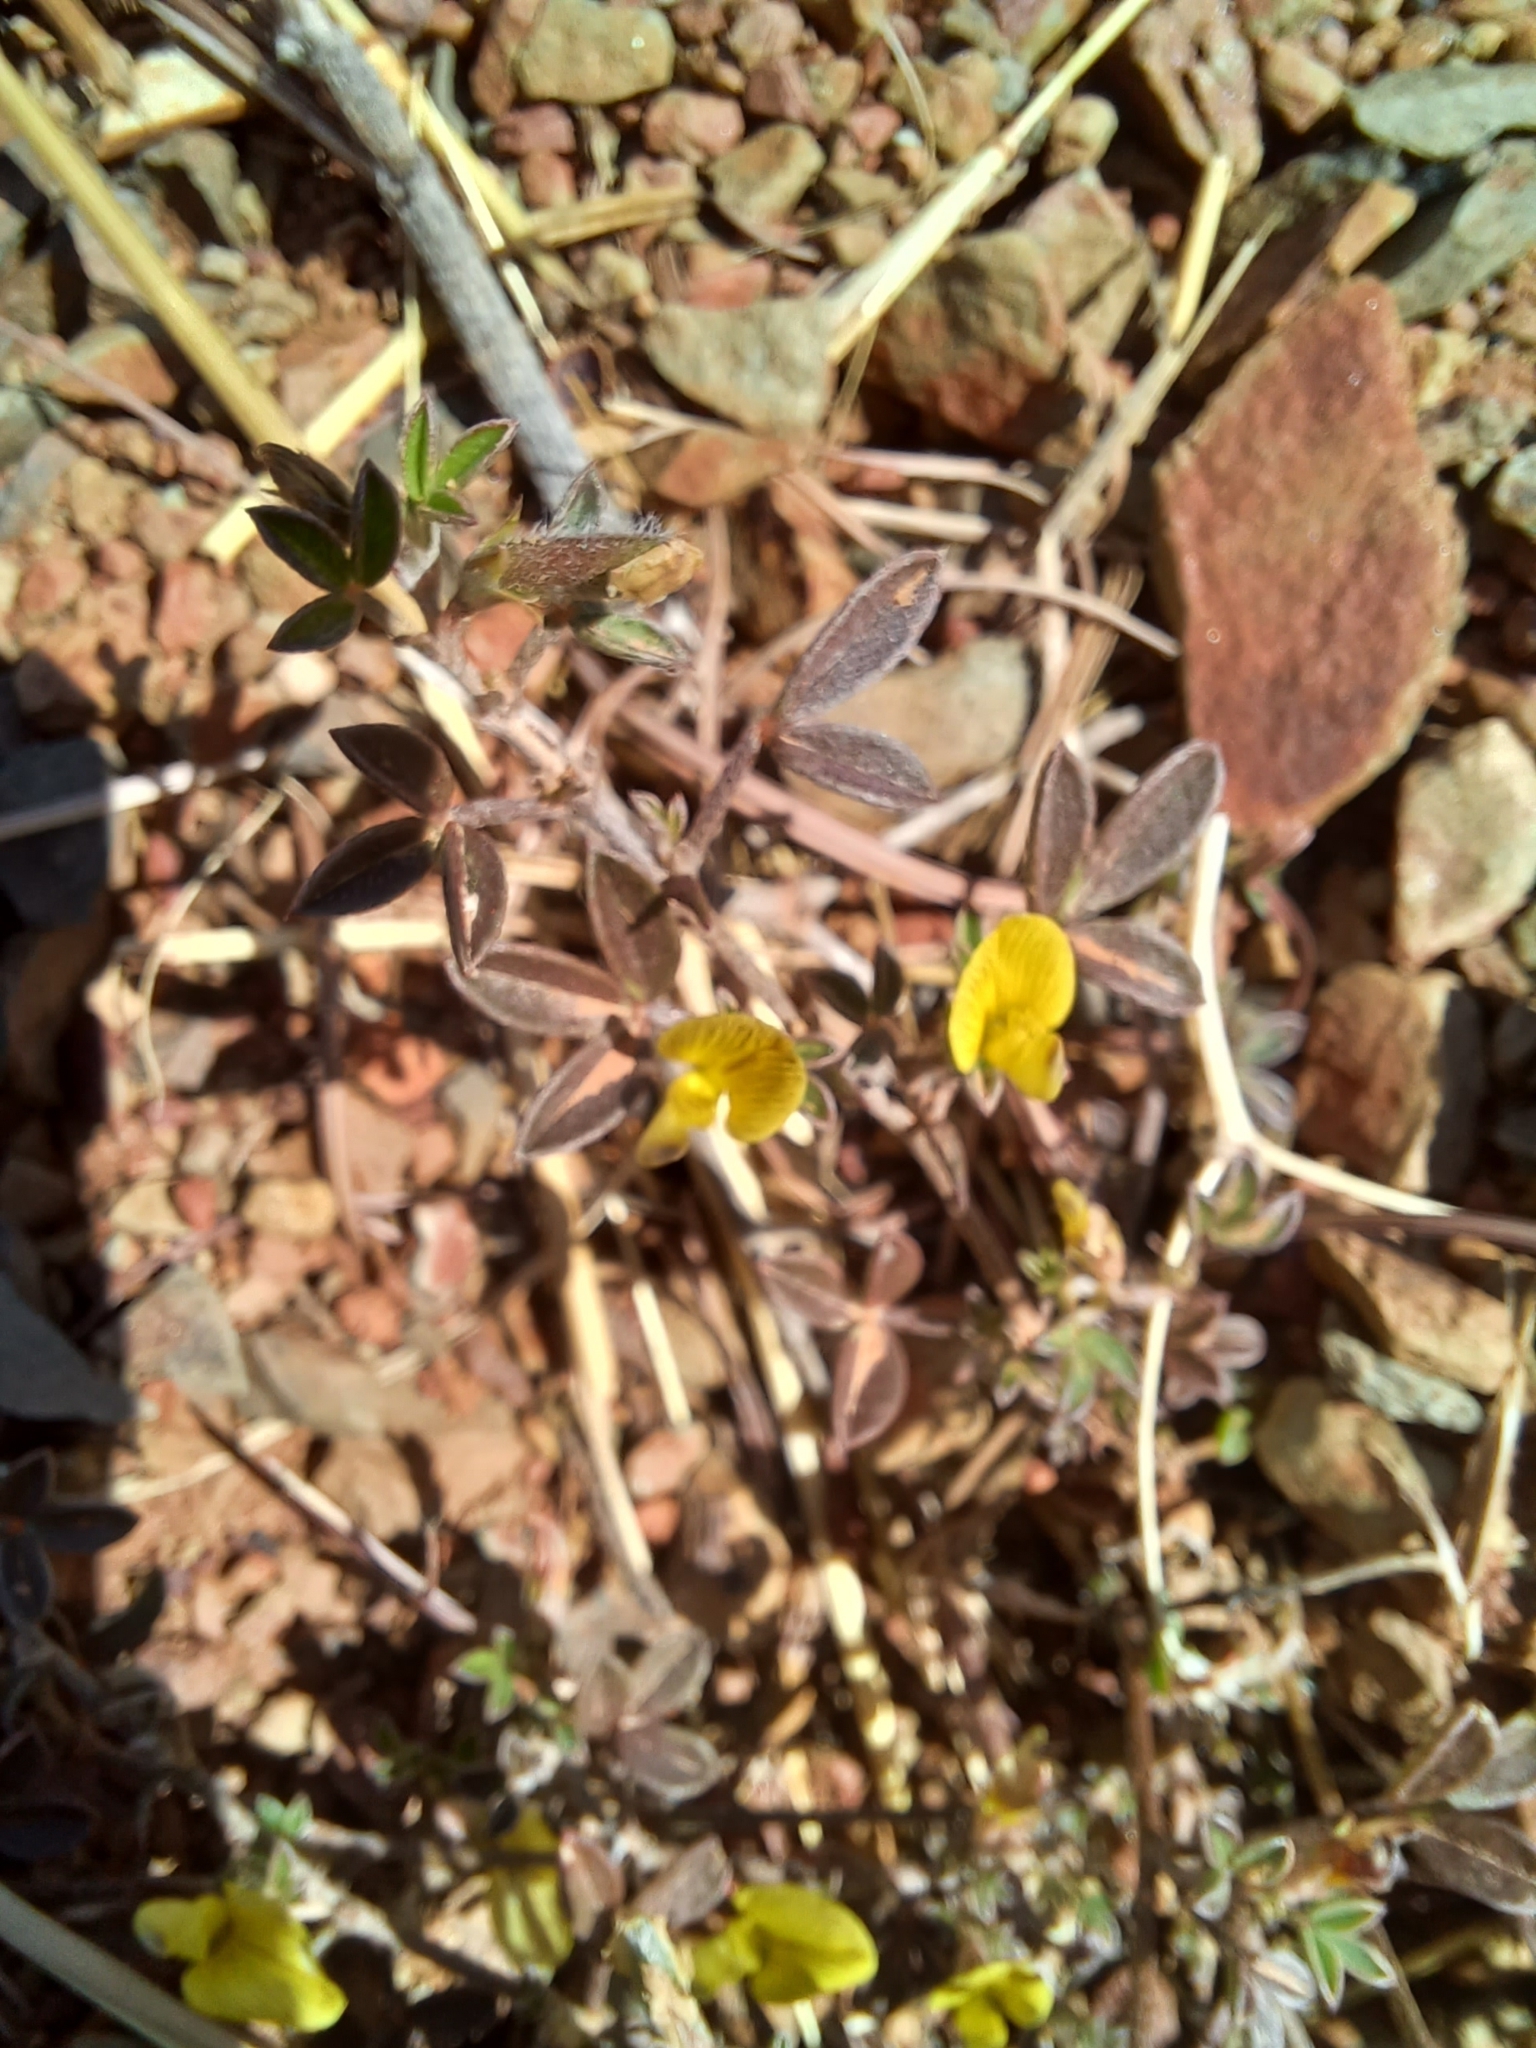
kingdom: Plantae
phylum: Tracheophyta
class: Magnoliopsida
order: Fabales
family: Fabaceae
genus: Lotononis
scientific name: Lotononis tenella
